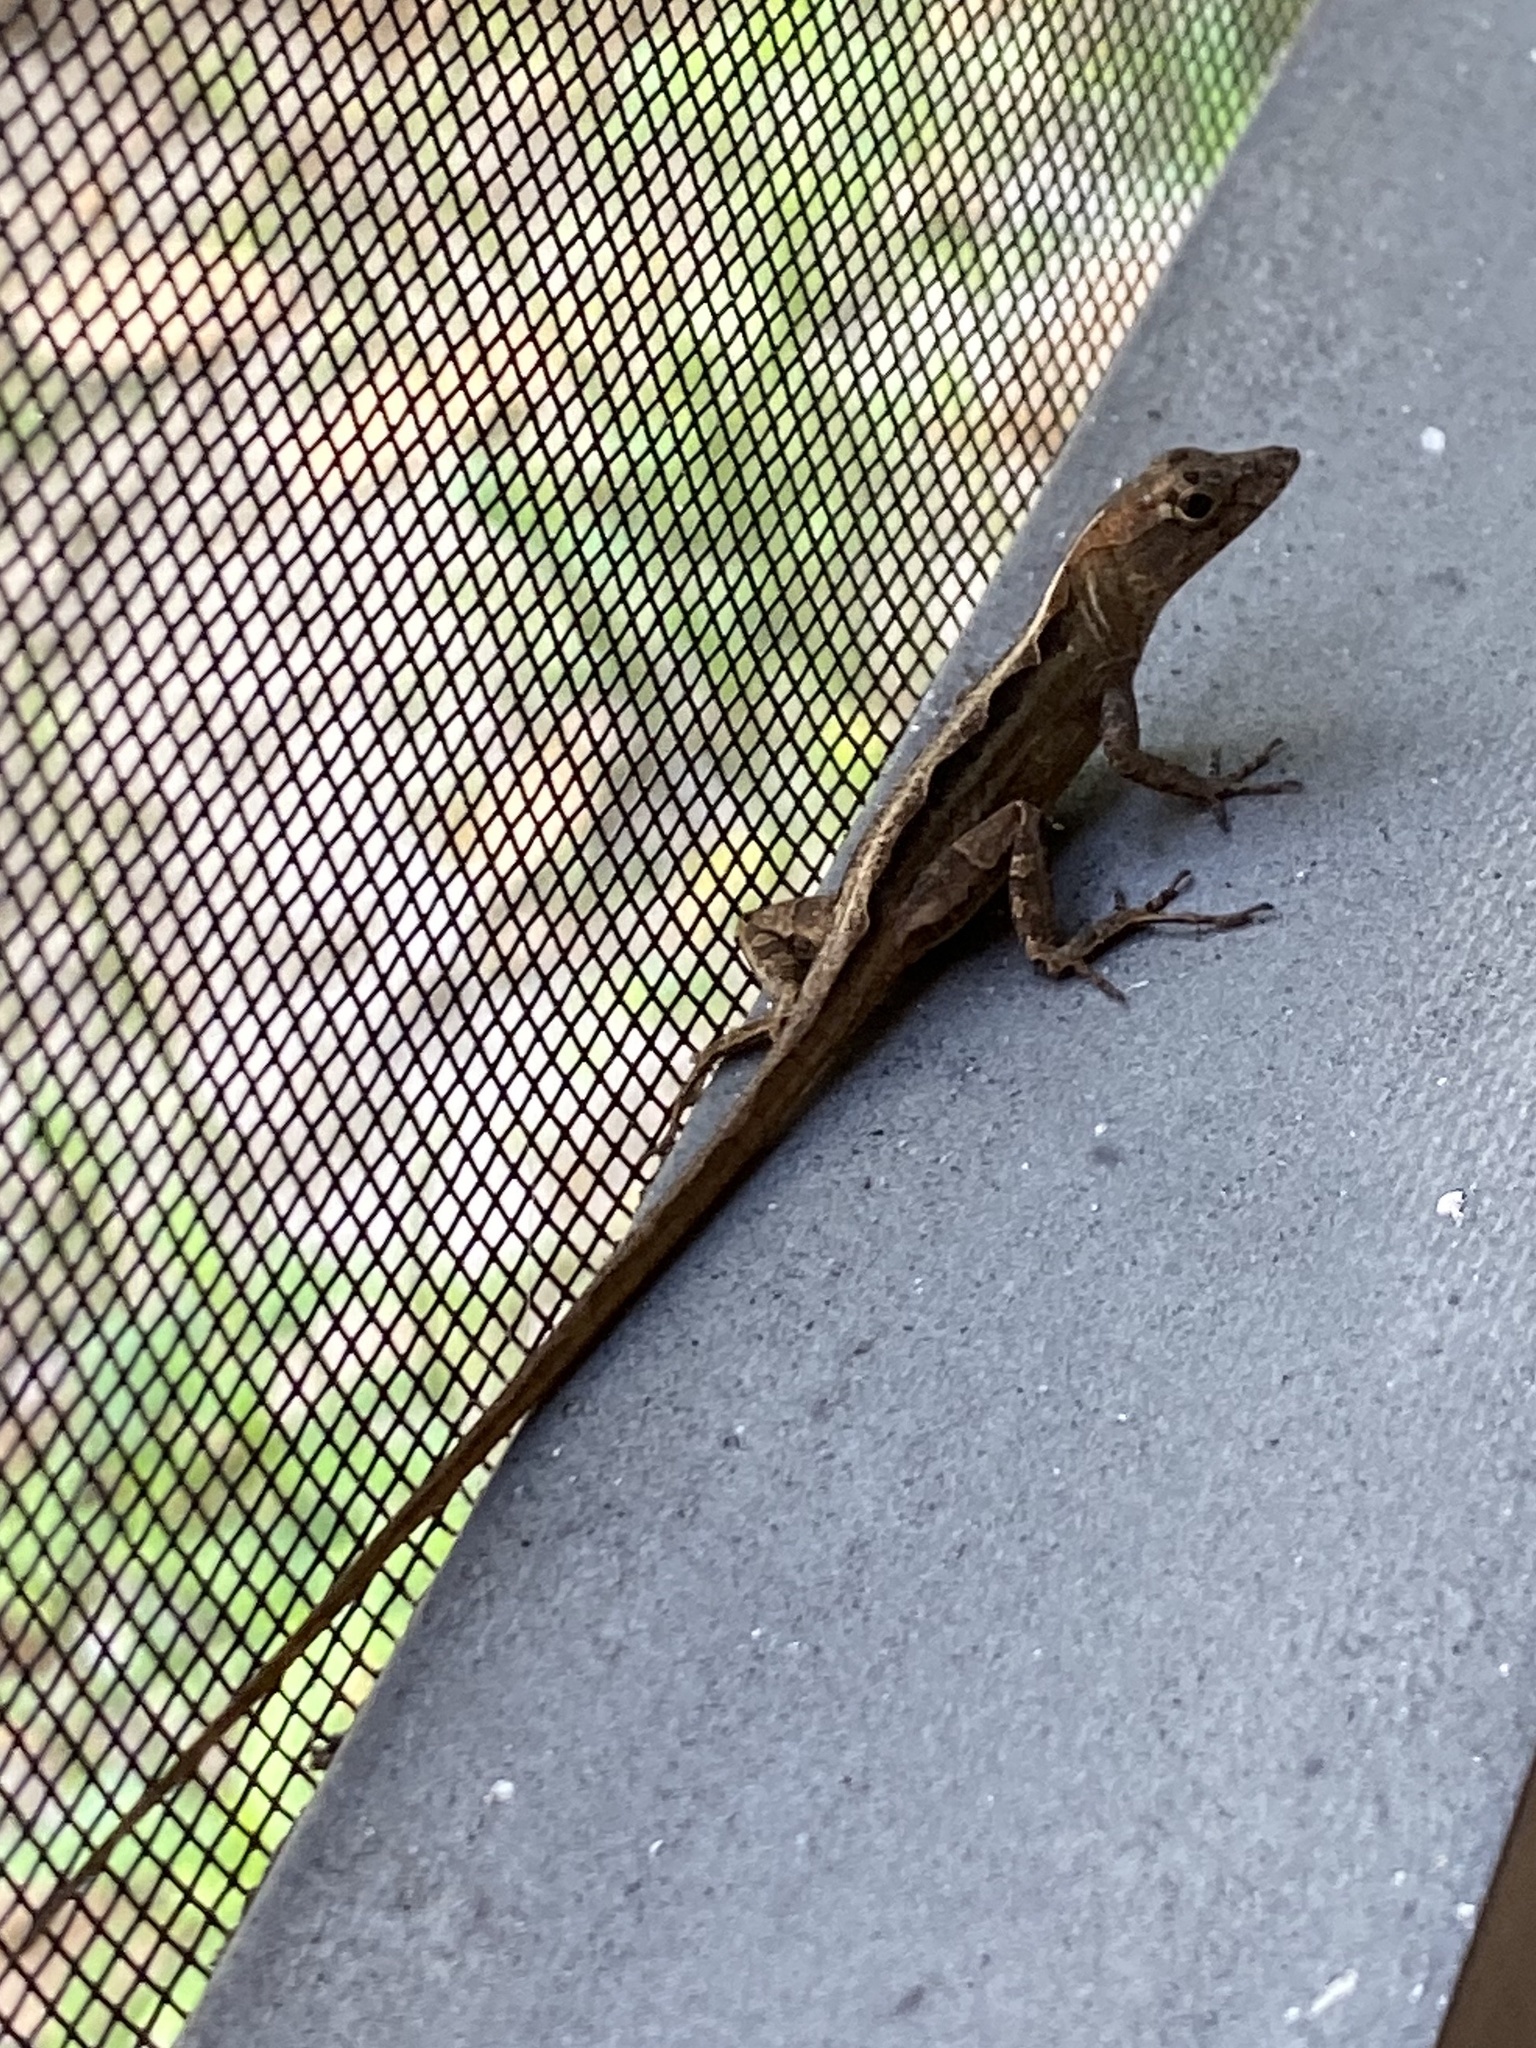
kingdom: Animalia
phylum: Chordata
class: Squamata
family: Dactyloidae
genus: Anolis
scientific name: Anolis sagrei
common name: Brown anole
